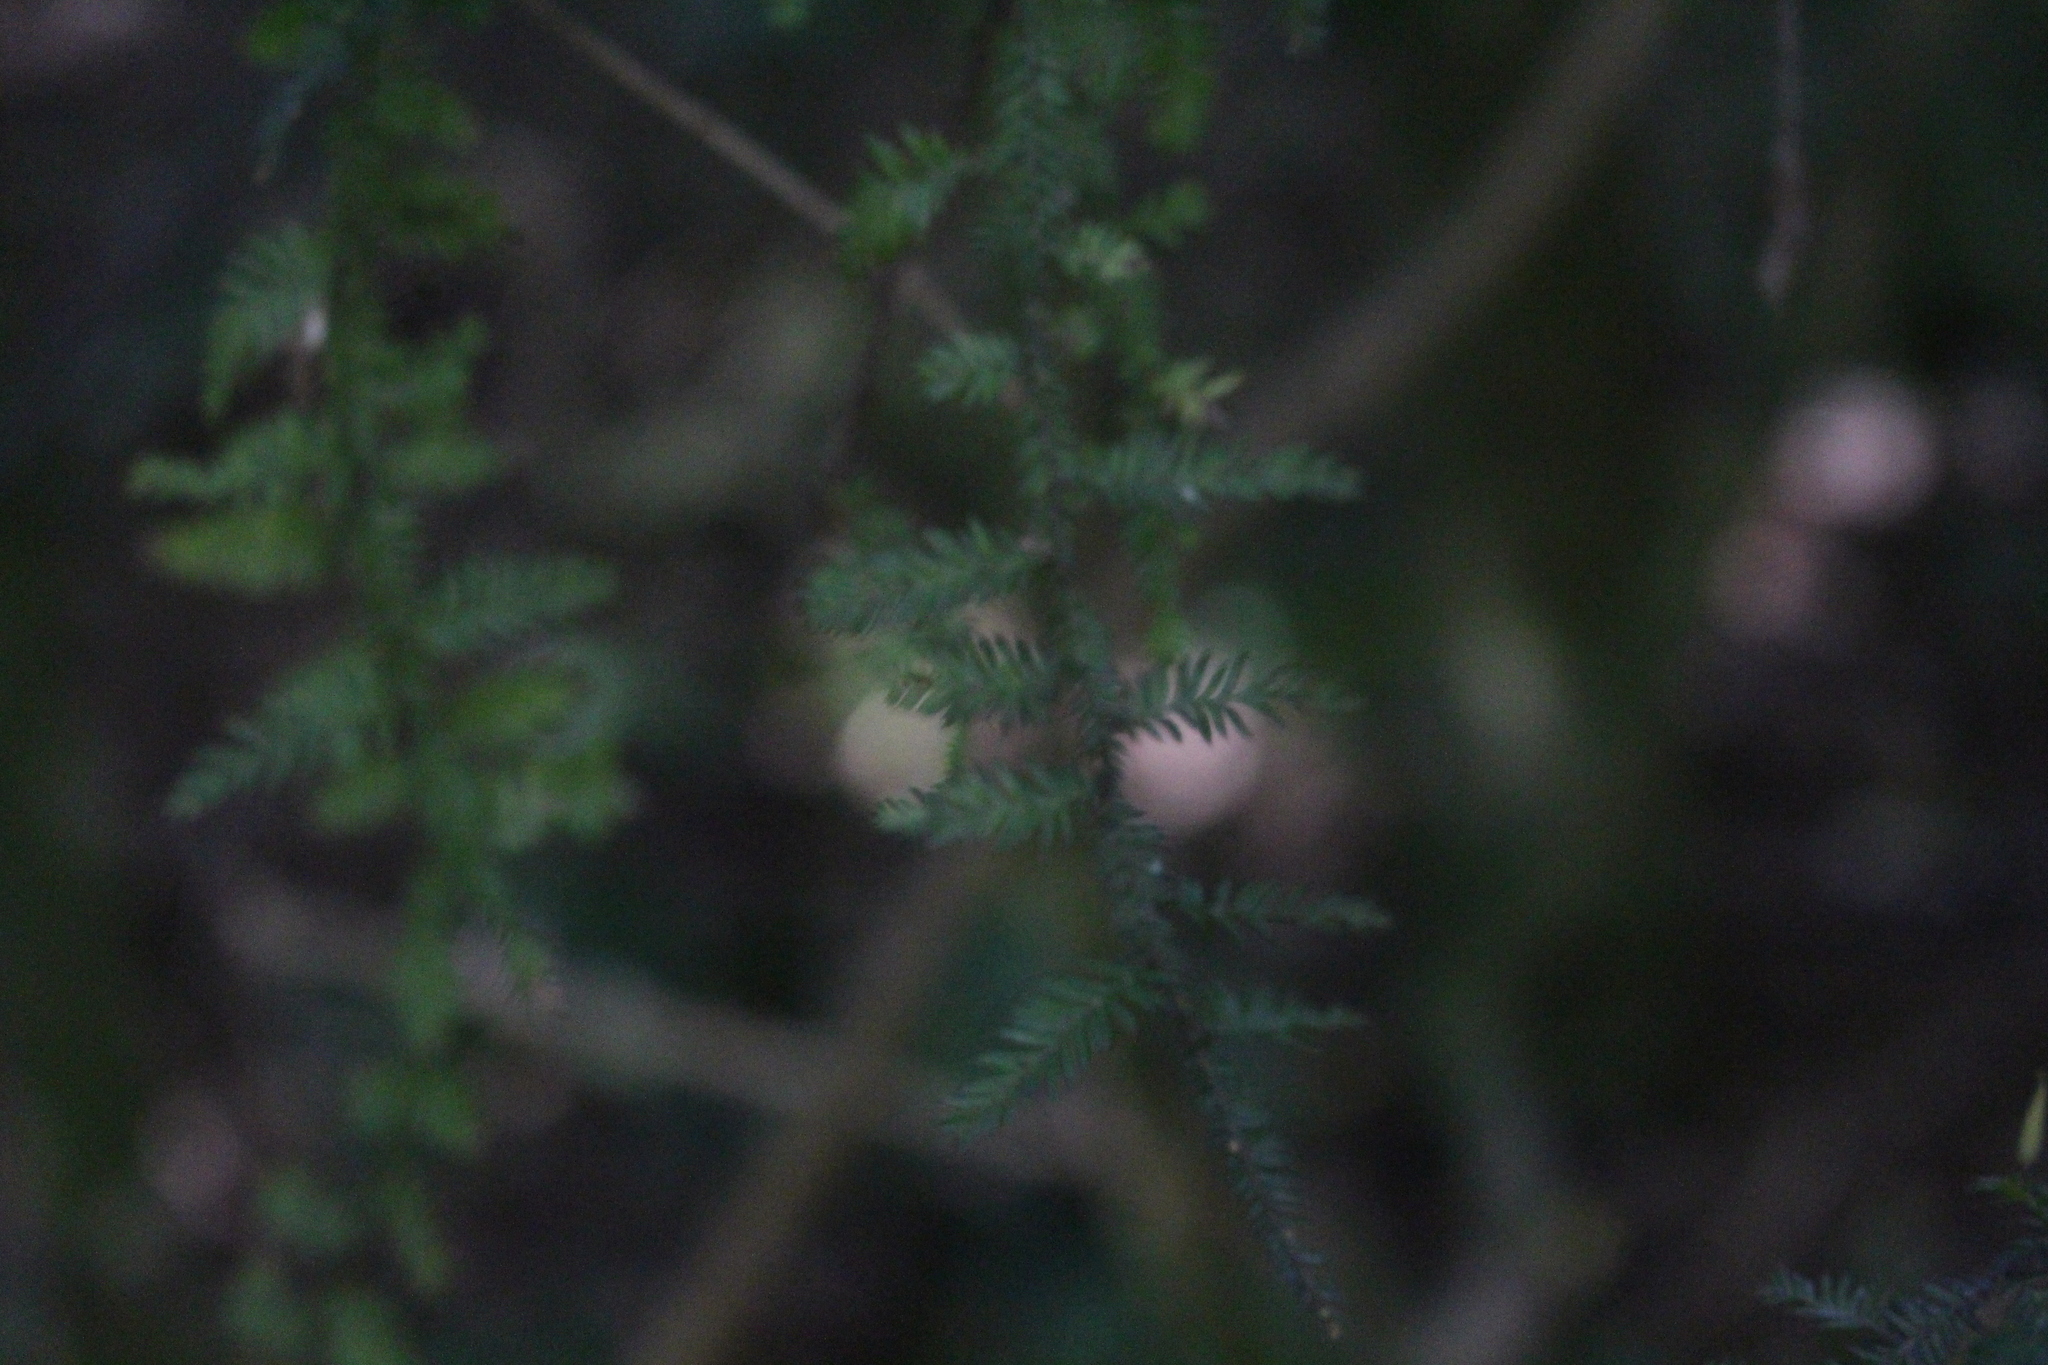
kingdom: Plantae
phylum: Tracheophyta
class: Pinopsida
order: Pinales
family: Podocarpaceae
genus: Dacrycarpus
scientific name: Dacrycarpus dacrydioides
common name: White pine
